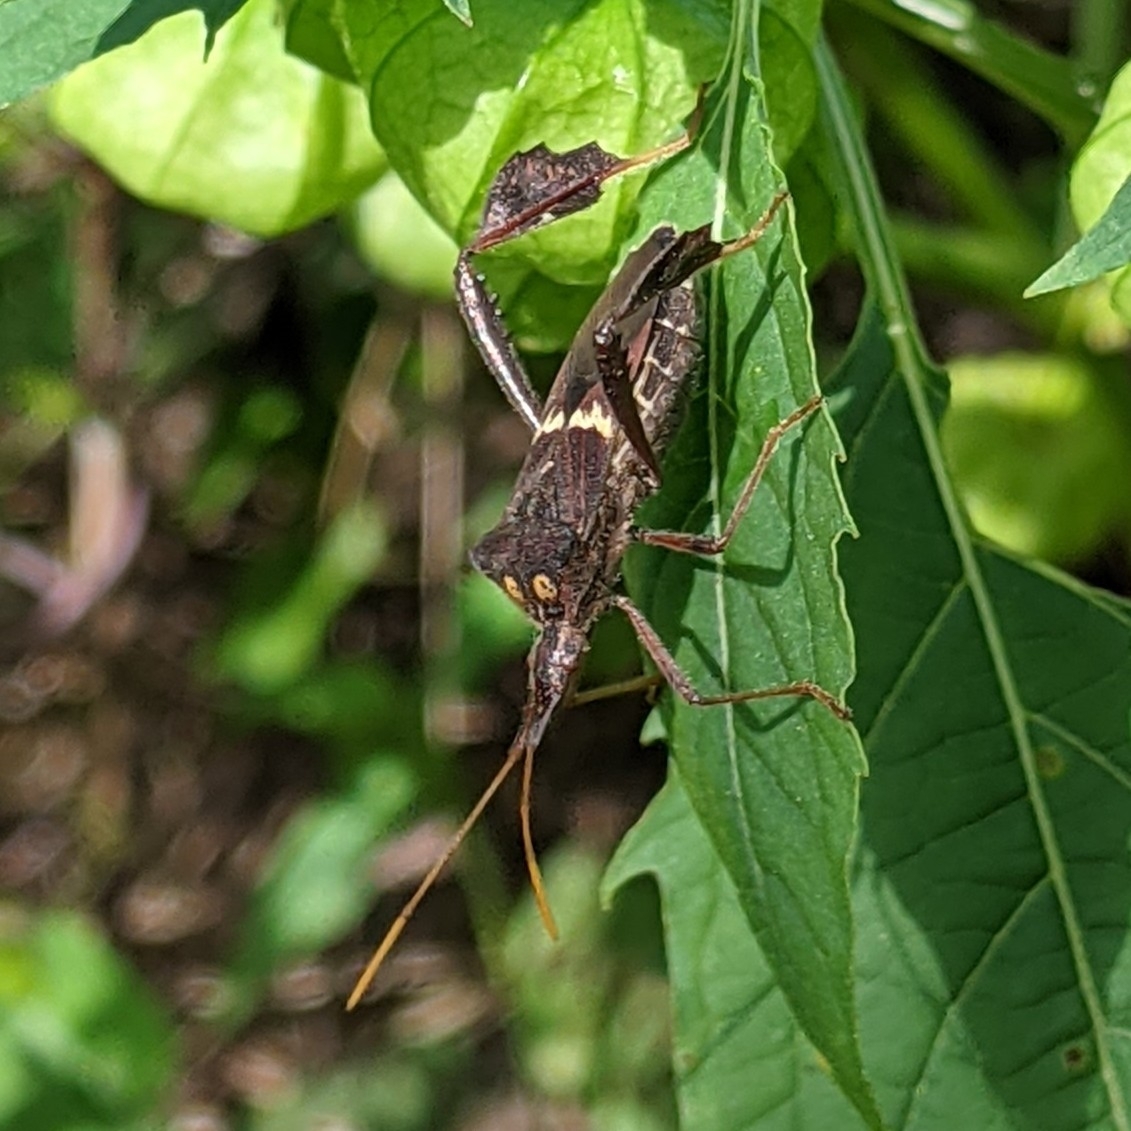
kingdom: Animalia
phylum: Arthropoda
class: Insecta
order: Hemiptera
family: Coreidae
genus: Leptoglossus
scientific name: Leptoglossus zonatus
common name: Large-legged bug
